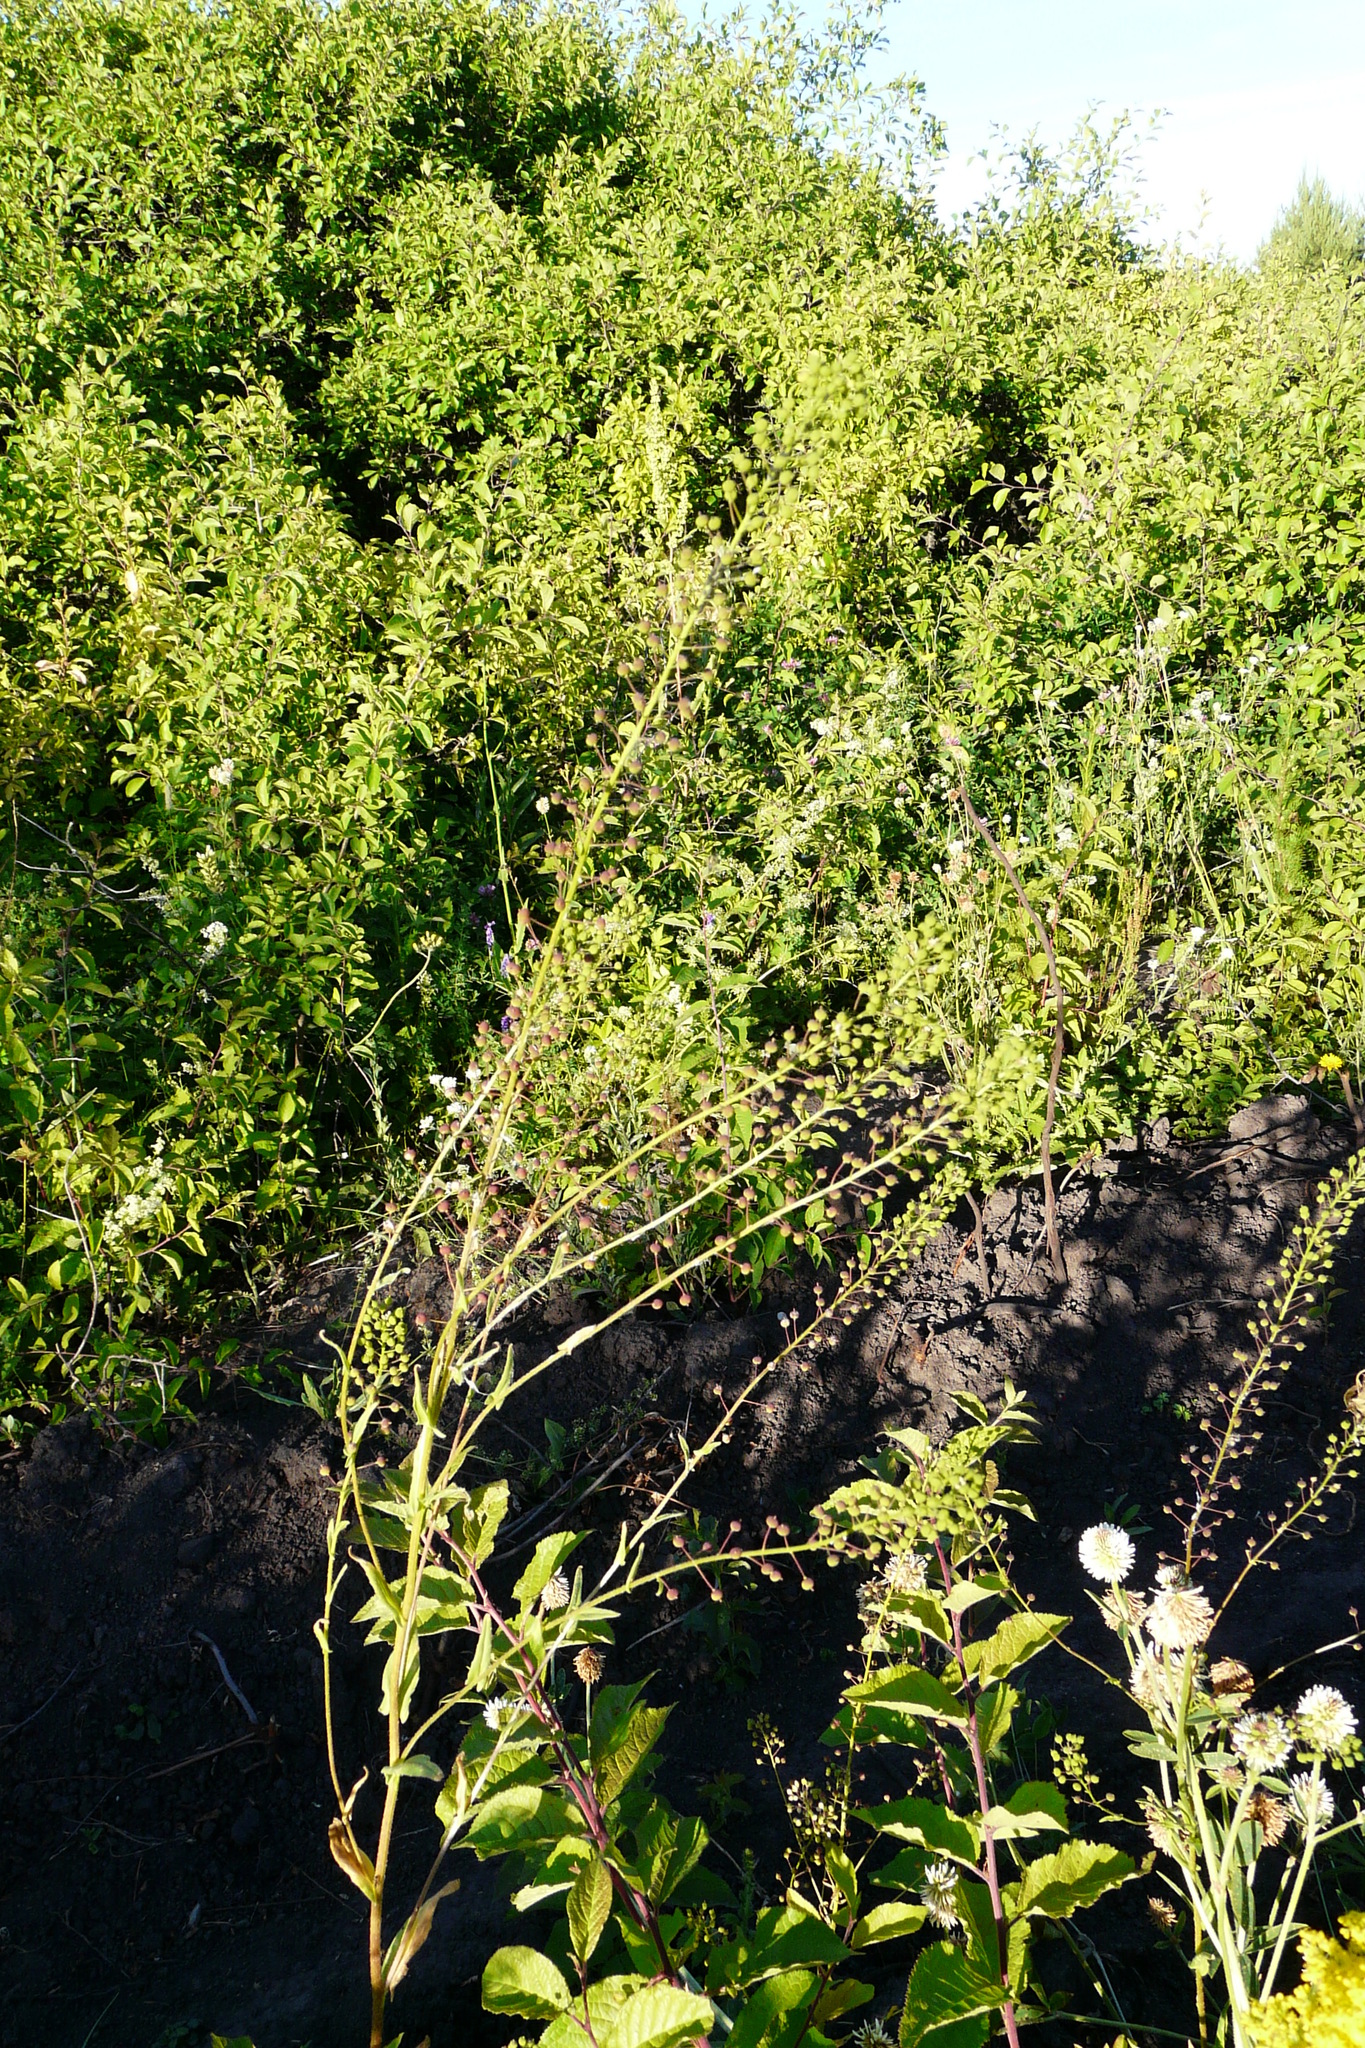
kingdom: Plantae
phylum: Tracheophyta
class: Magnoliopsida
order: Brassicales
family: Brassicaceae
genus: Neslia
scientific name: Neslia paniculata
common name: Ball mustard
